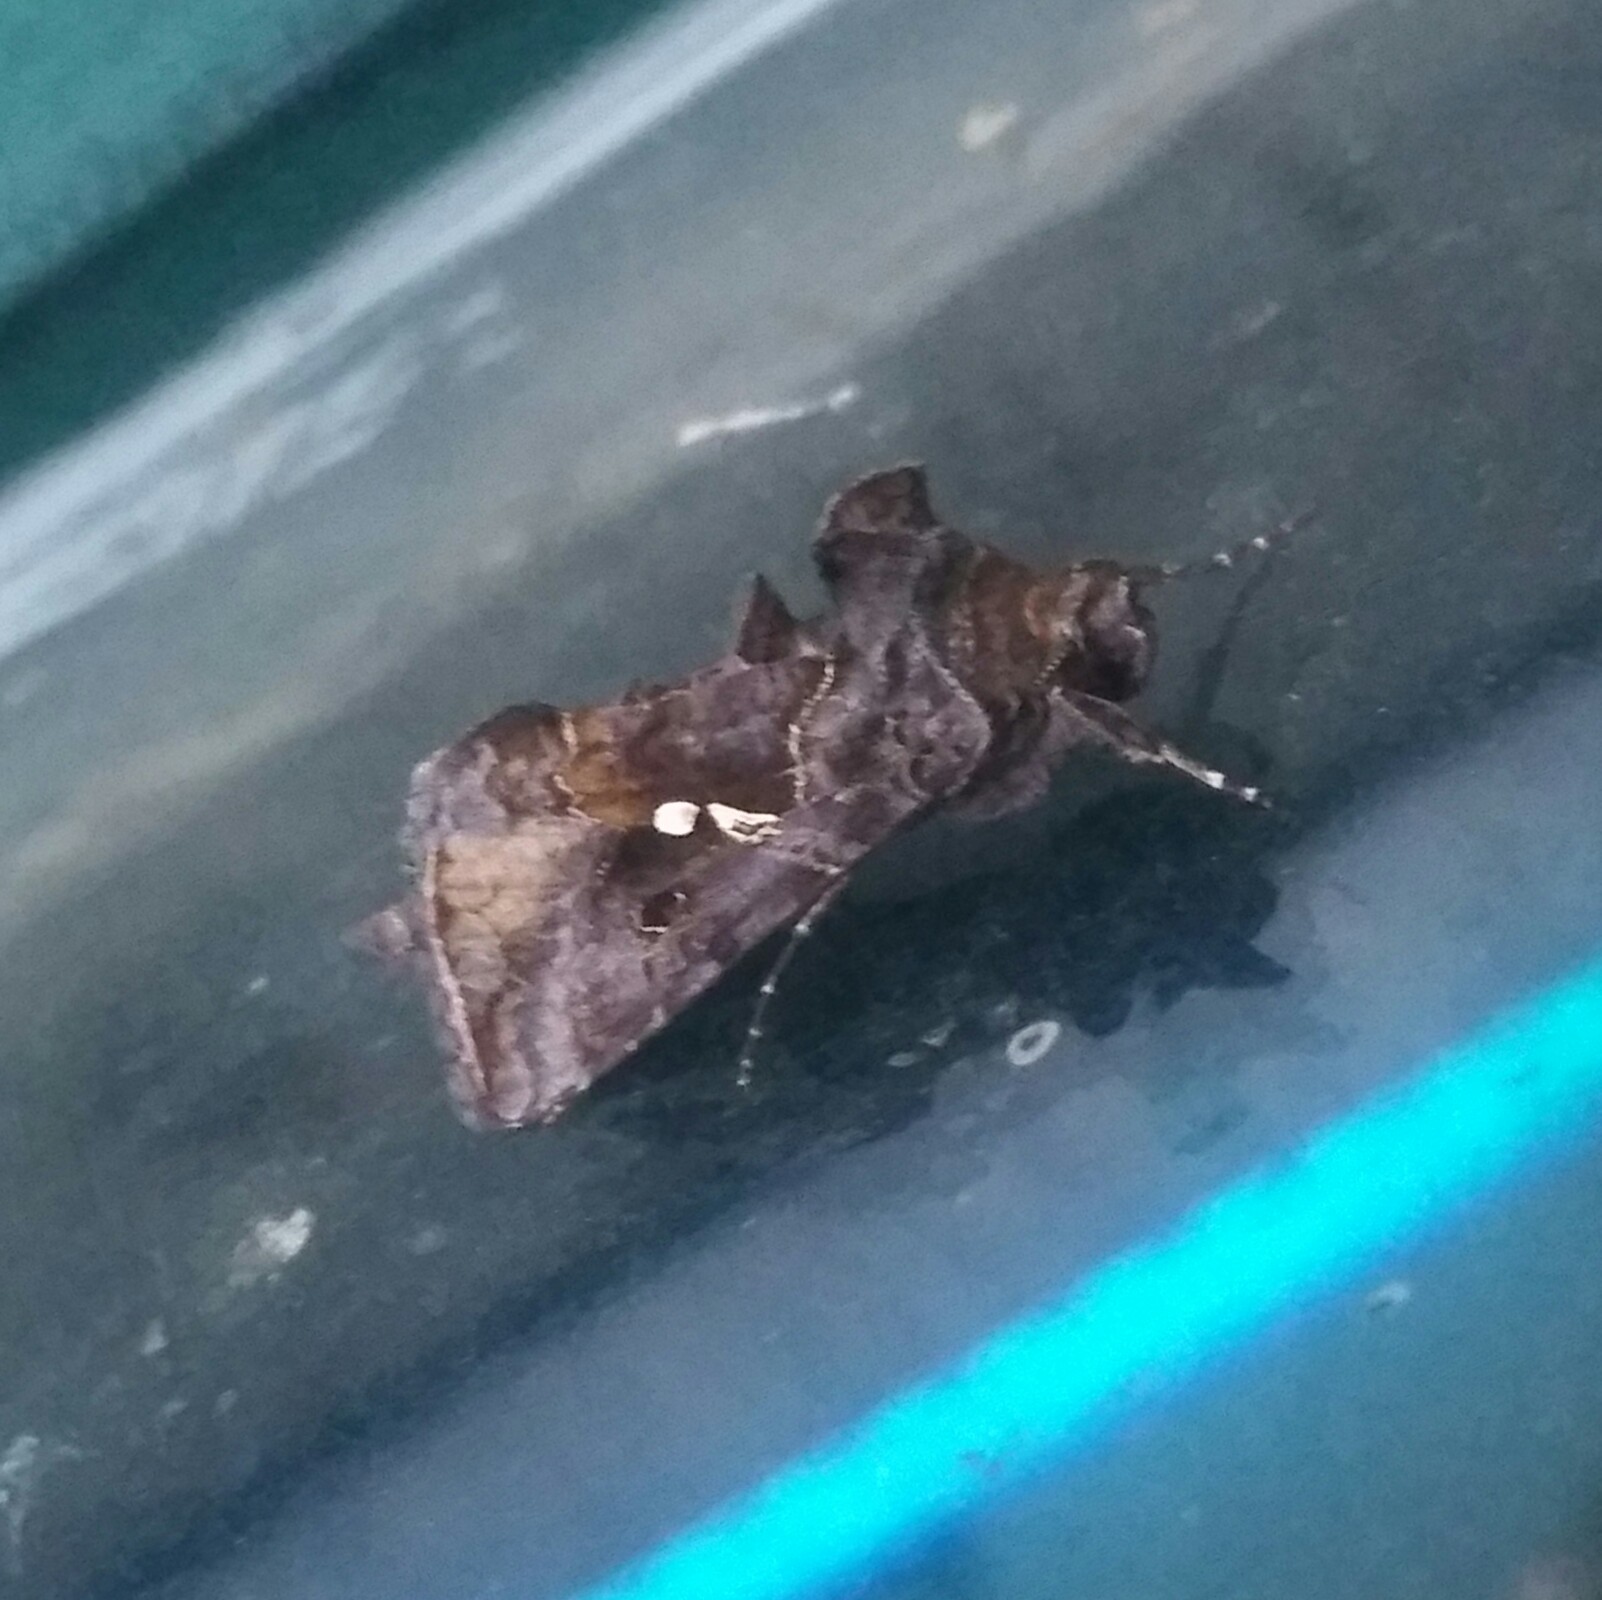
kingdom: Animalia
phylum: Arthropoda
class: Insecta
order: Lepidoptera
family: Noctuidae
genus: Autographa
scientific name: Autographa precationis
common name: Common looper moth
